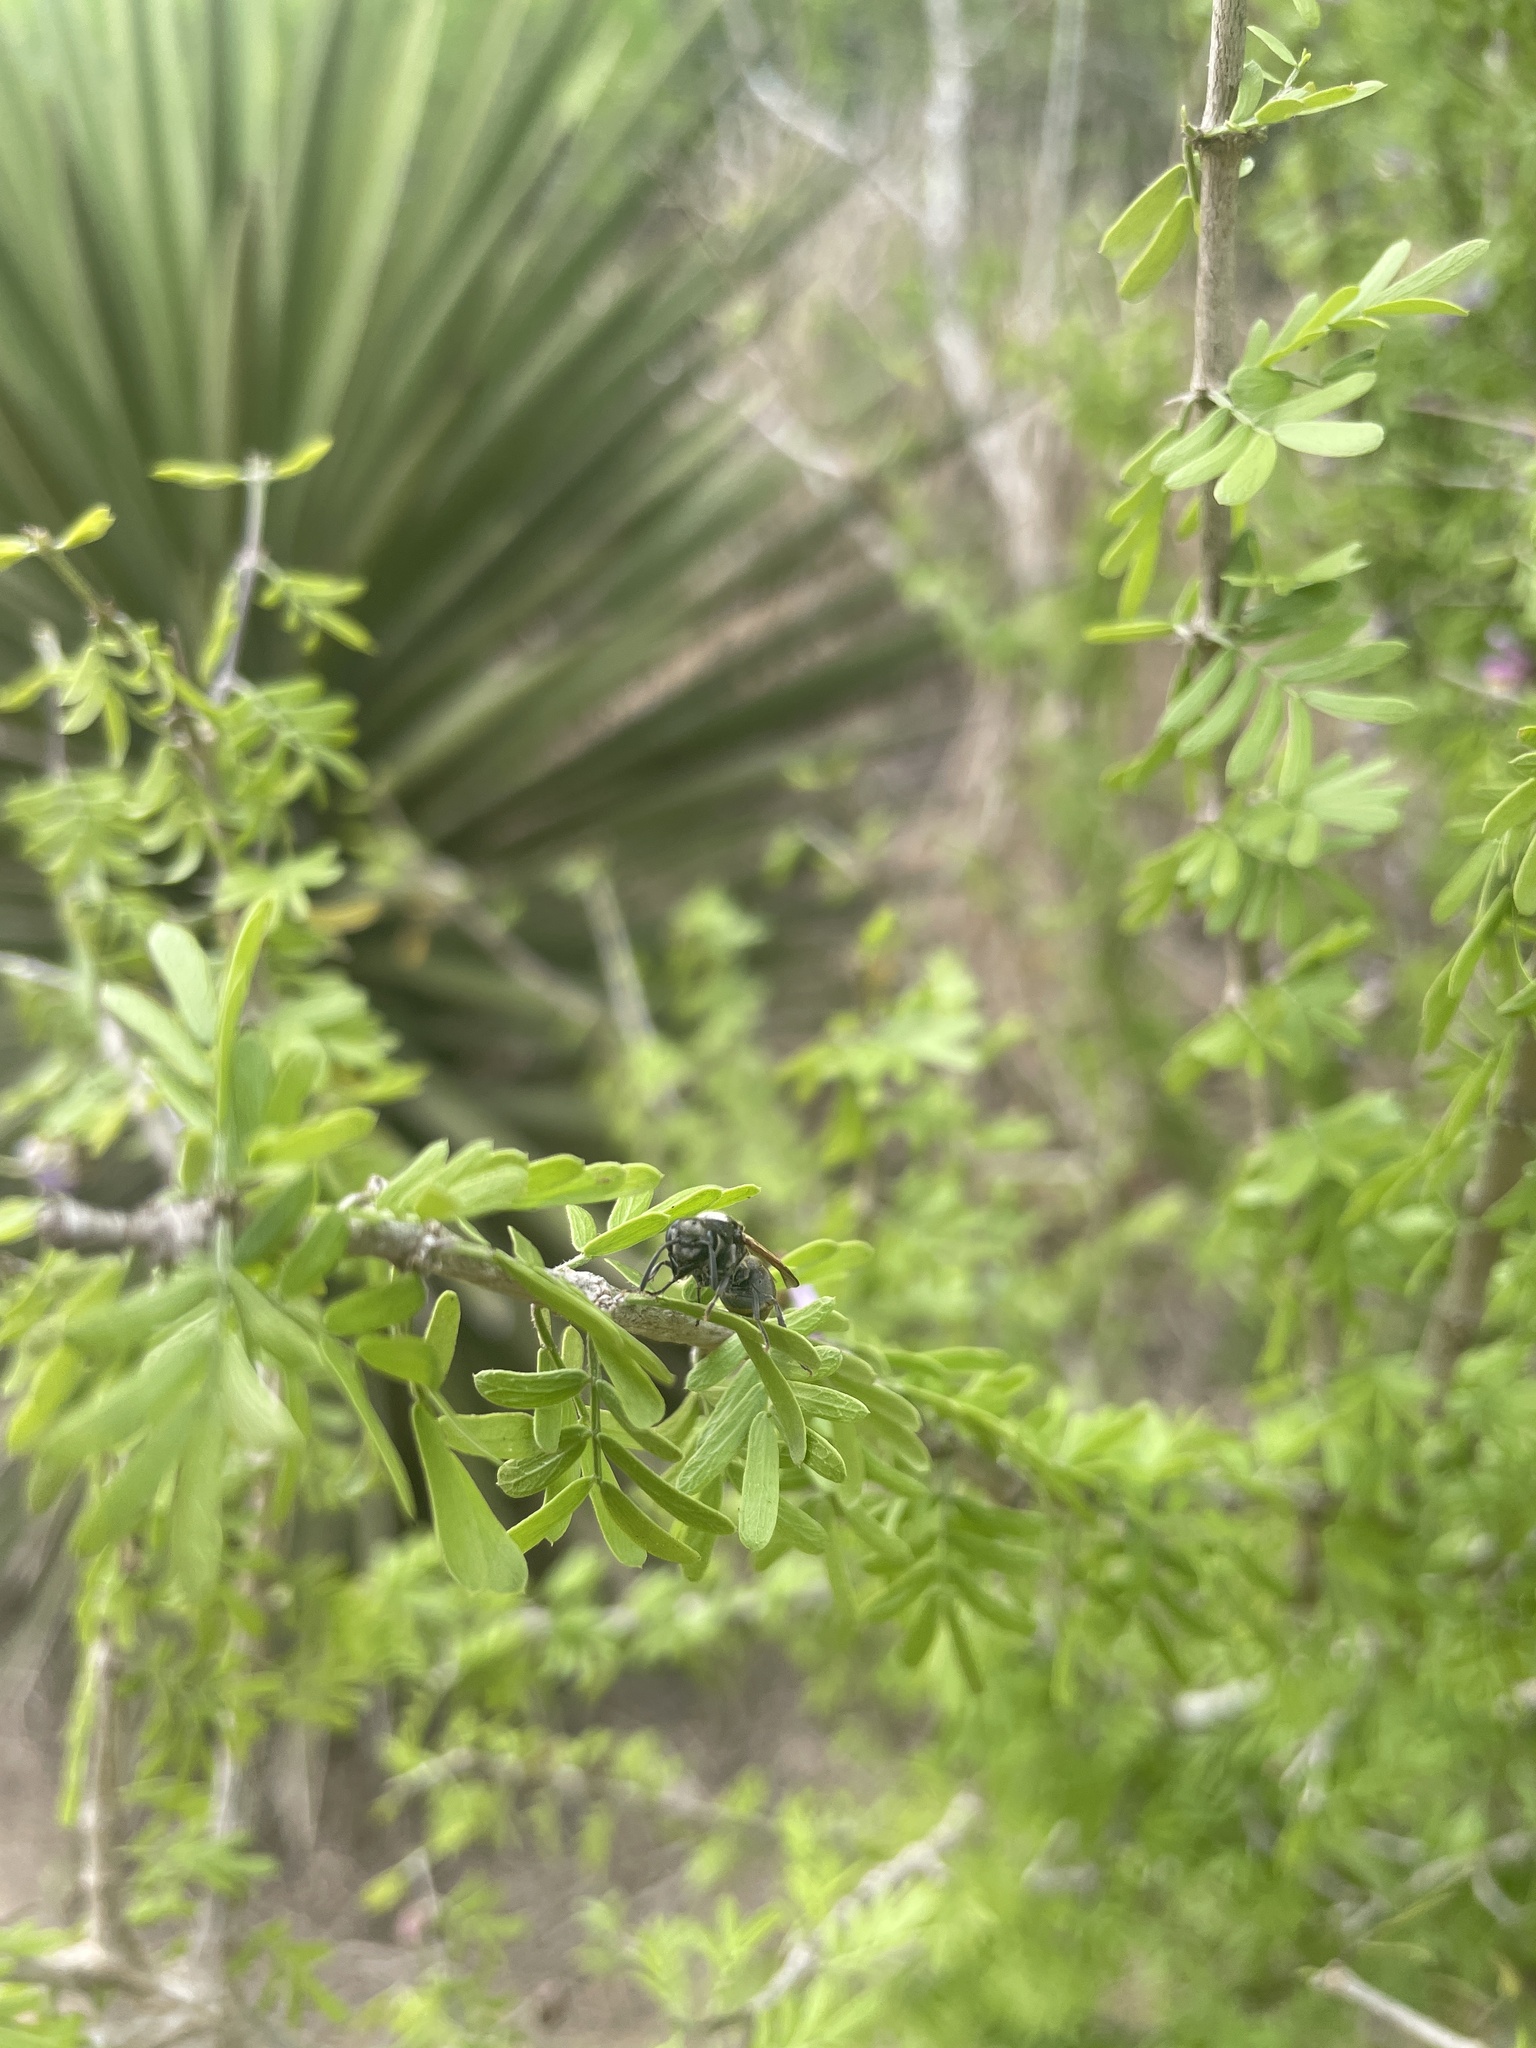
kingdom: Animalia
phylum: Arthropoda
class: Insecta
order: Hymenoptera
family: Vespidae
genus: Brachygastra
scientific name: Brachygastra mellifica
